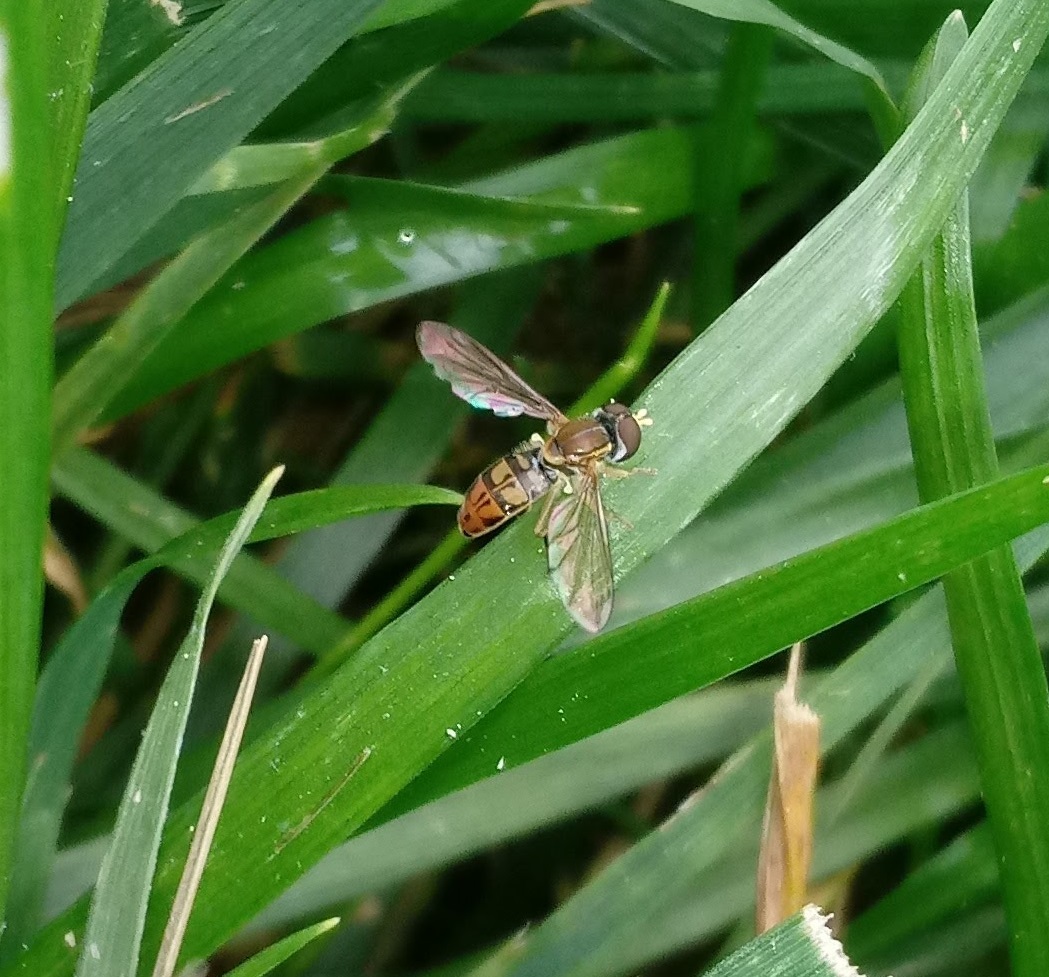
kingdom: Animalia
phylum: Arthropoda
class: Insecta
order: Diptera
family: Syrphidae
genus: Toxomerus
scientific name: Toxomerus marginatus
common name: Syrphid fly
